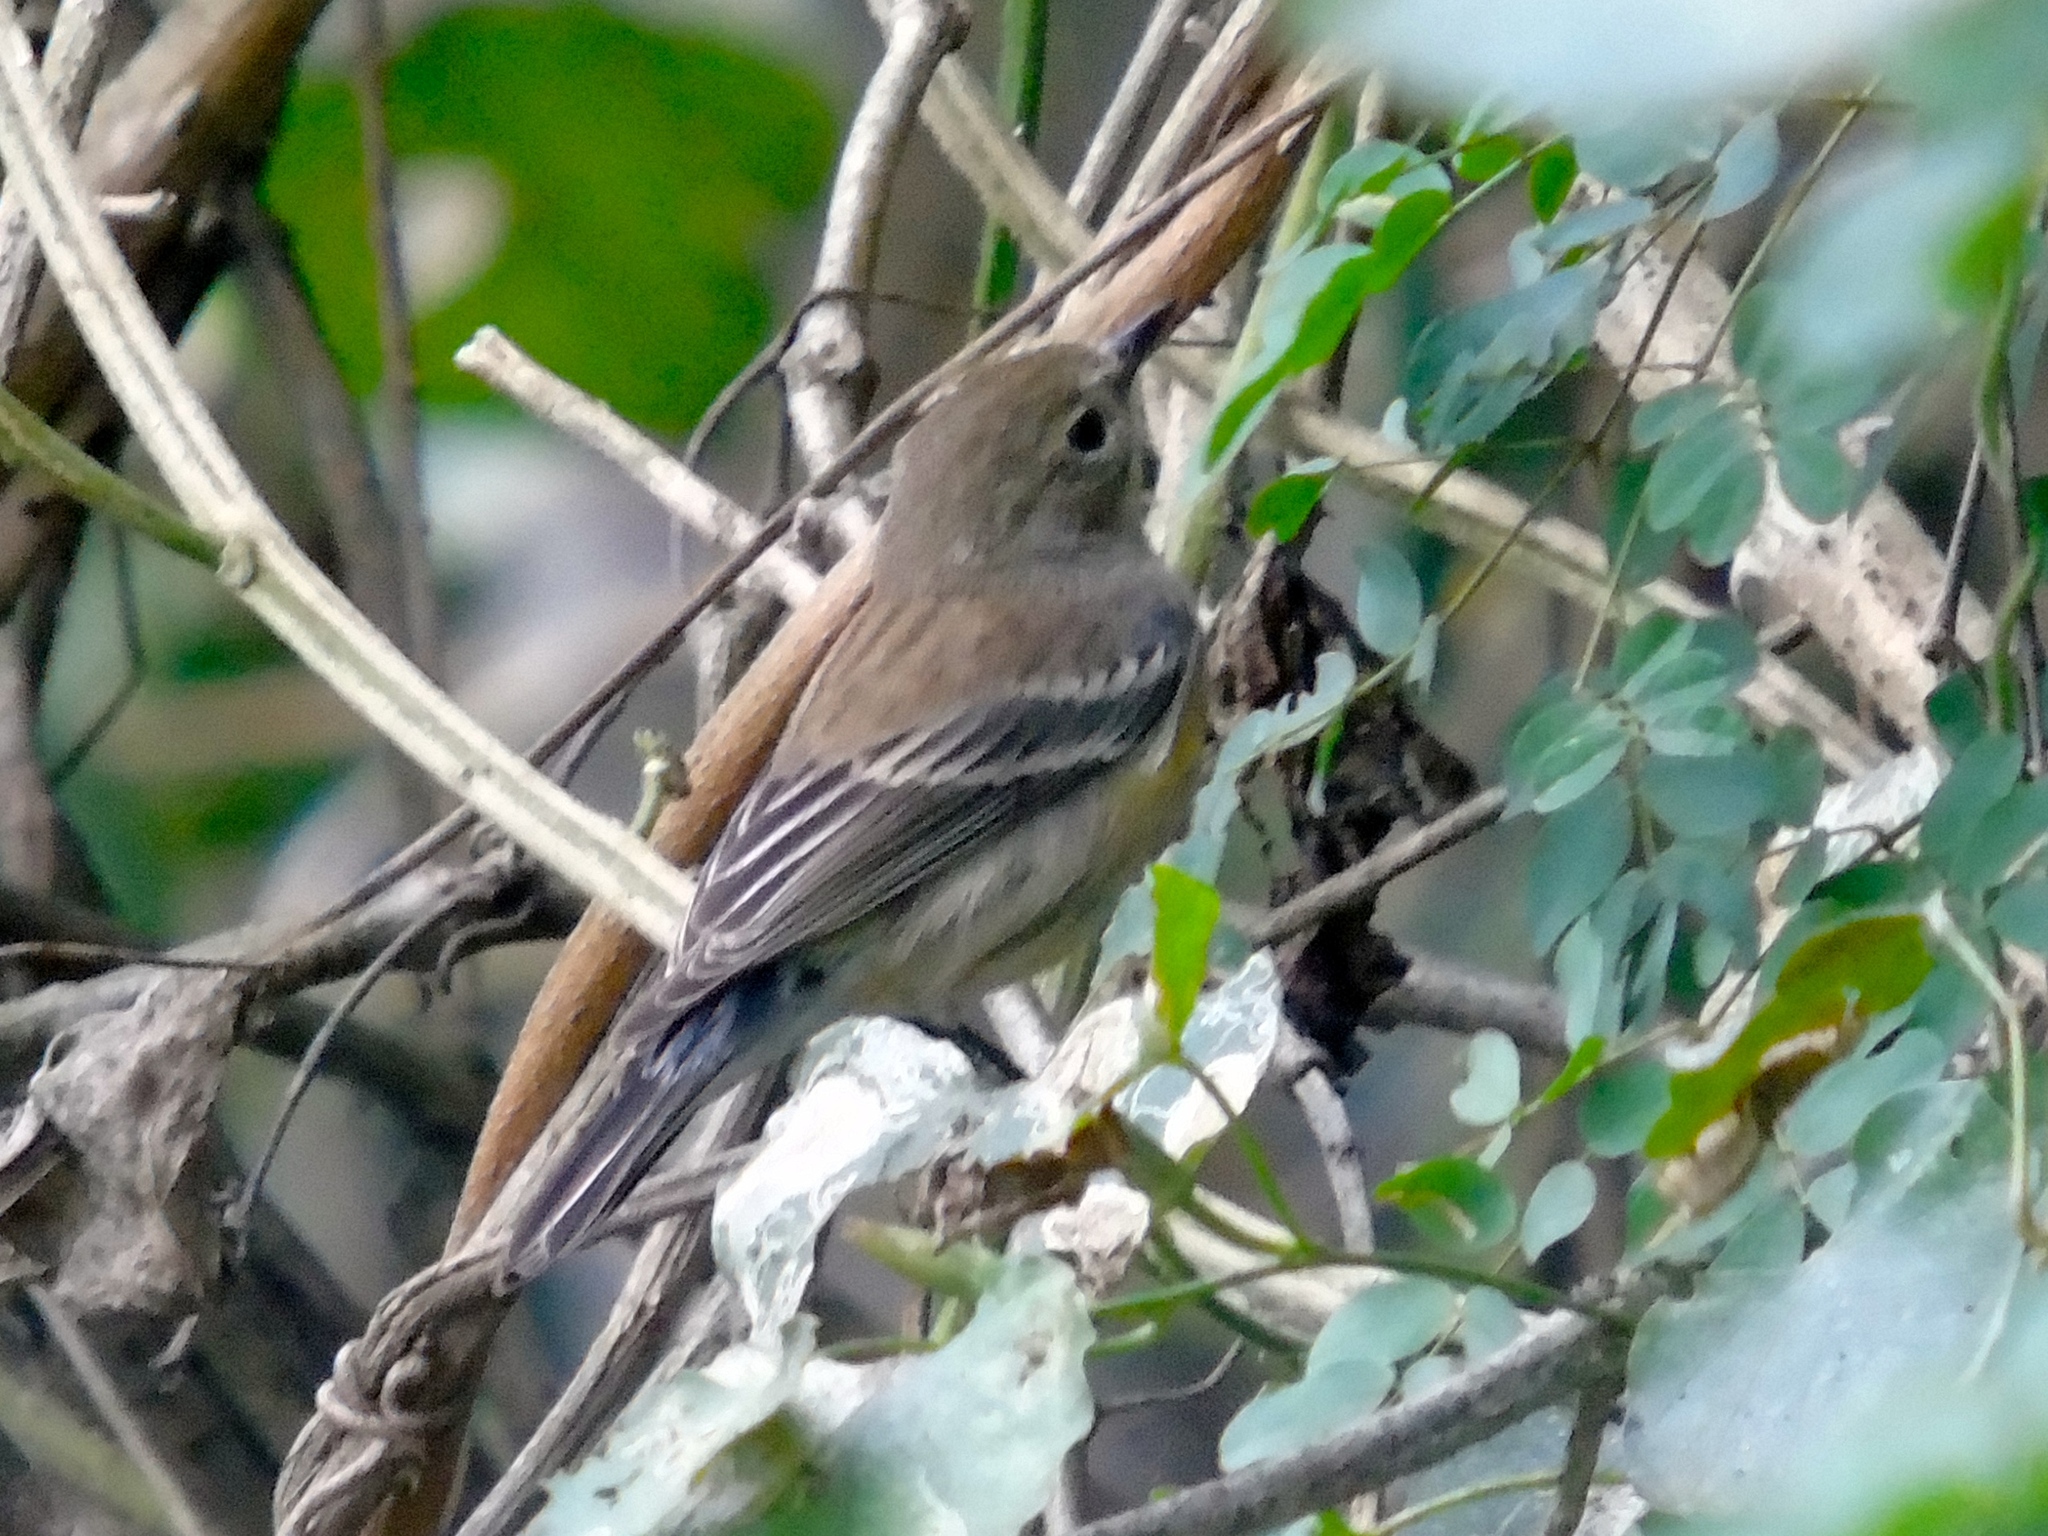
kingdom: Animalia
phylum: Chordata
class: Aves
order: Passeriformes
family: Parulidae
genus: Setophaga
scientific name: Setophaga coronata
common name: Myrtle warbler
